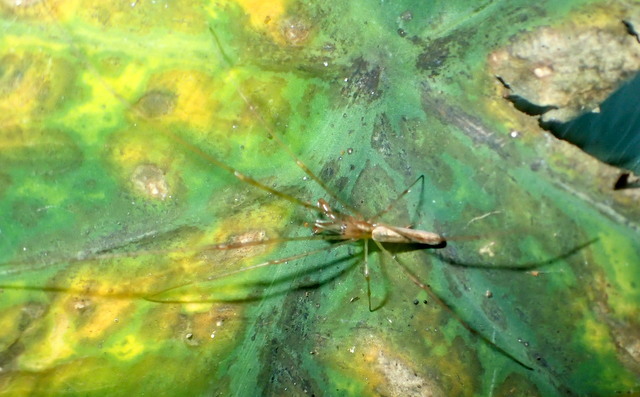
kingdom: Animalia
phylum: Arthropoda
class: Arachnida
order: Araneae
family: Tetragnathidae
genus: Tetragnatha
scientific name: Tetragnatha
